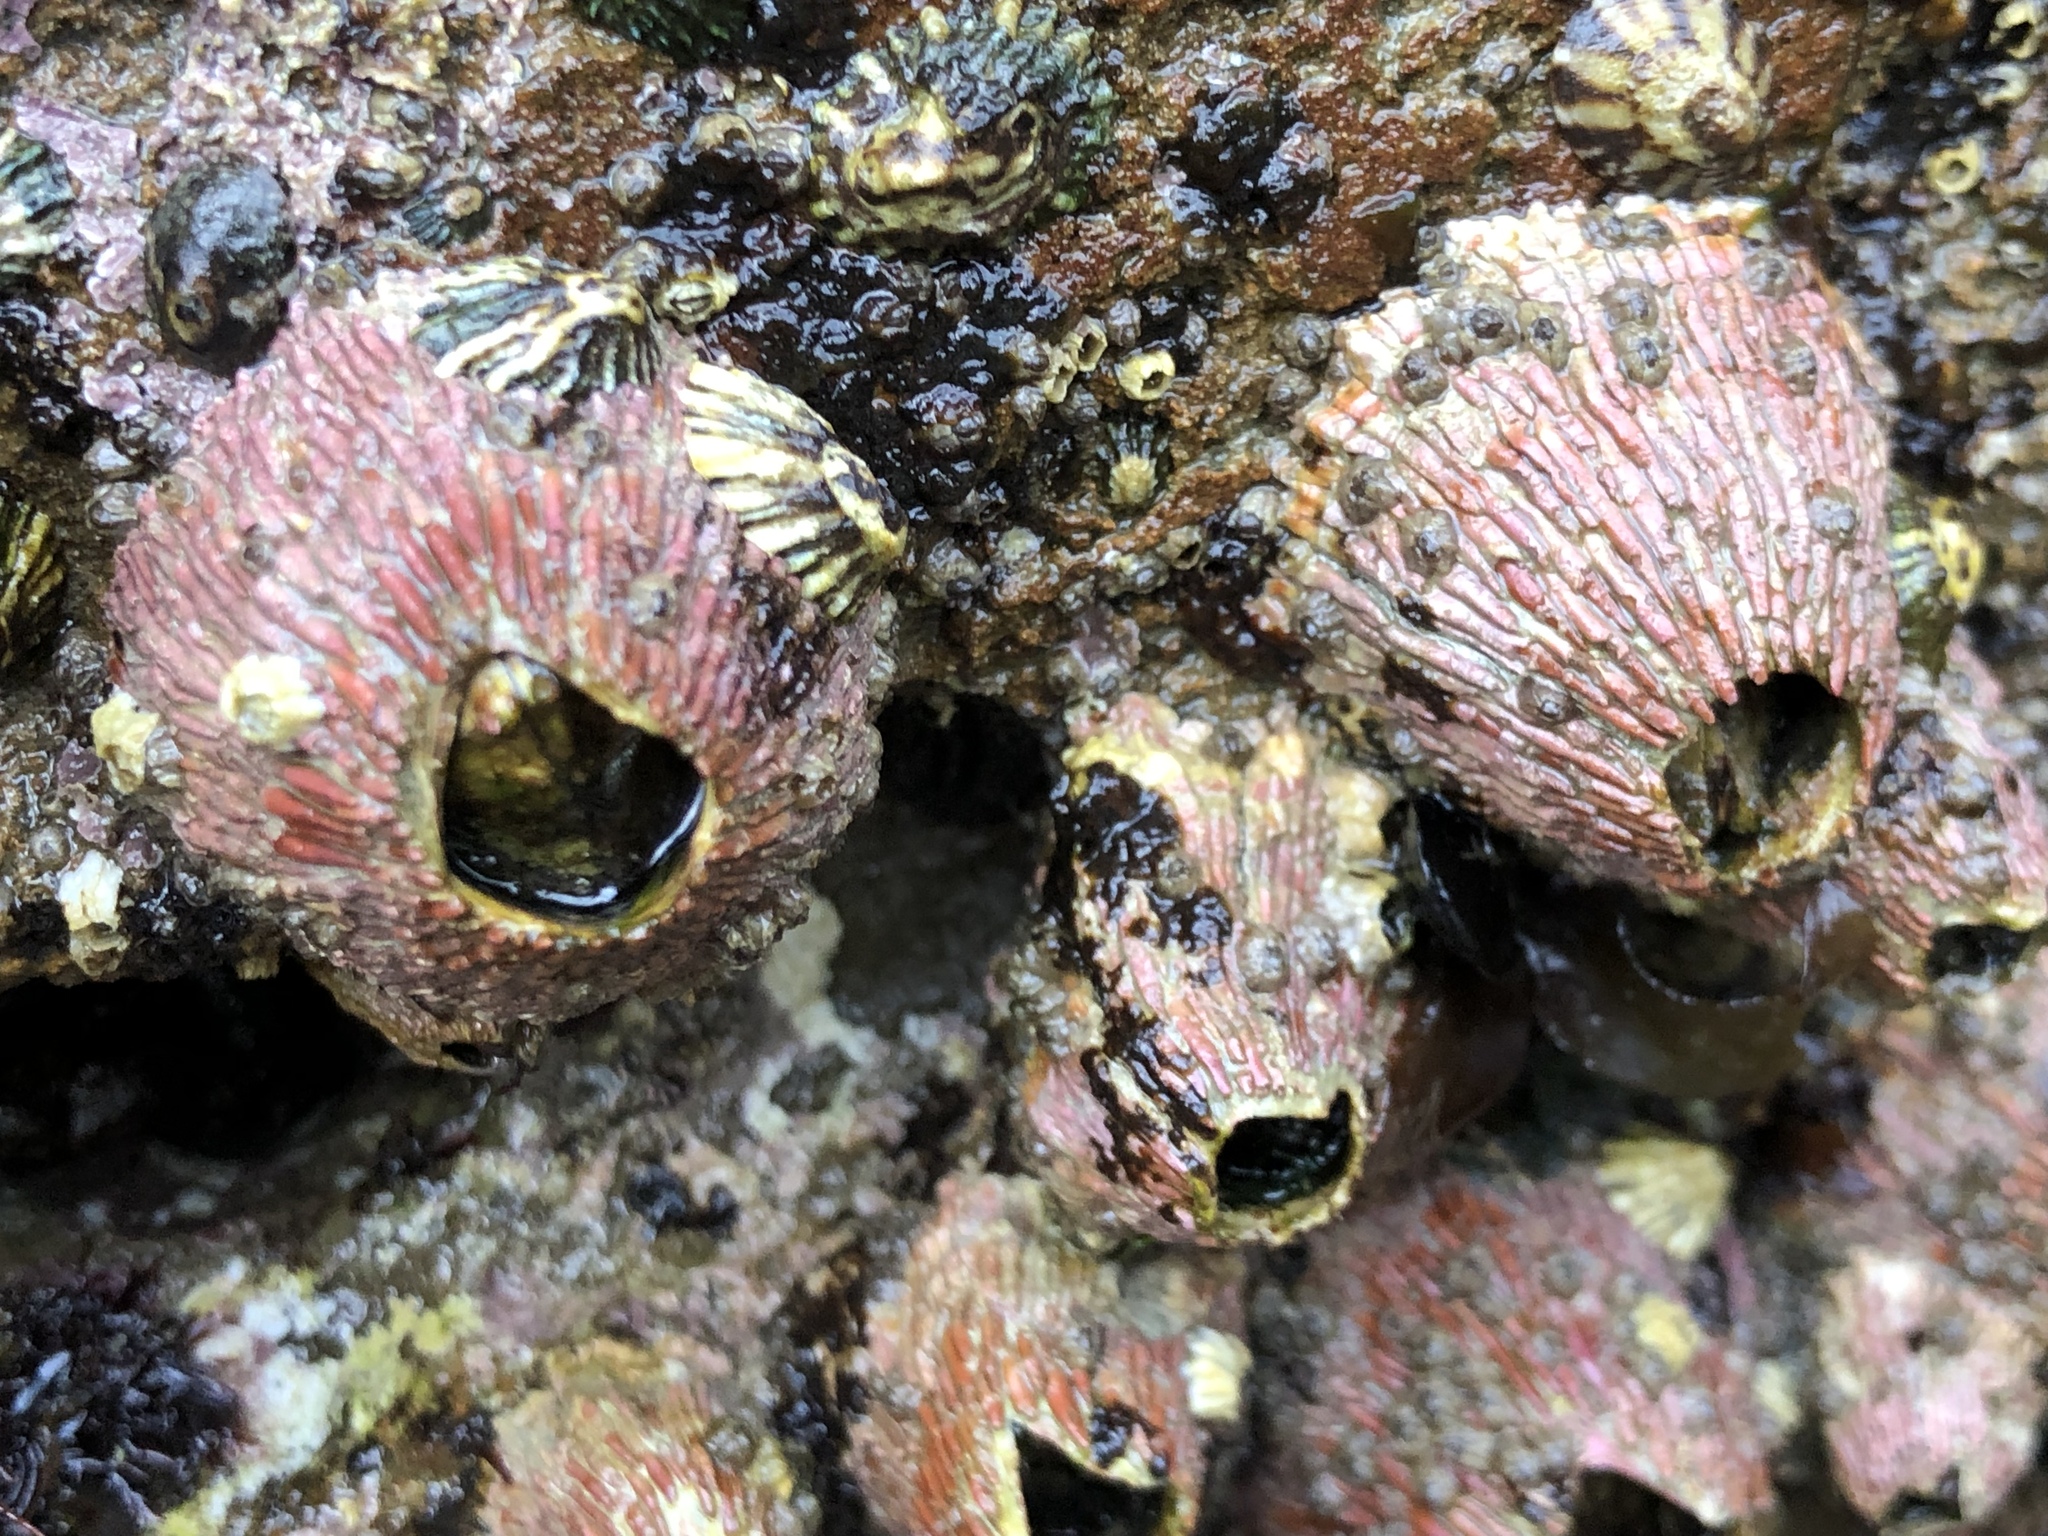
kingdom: Animalia
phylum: Arthropoda
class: Maxillopoda
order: Sessilia
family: Tetraclitidae
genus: Tetraclita
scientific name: Tetraclita rubescens
